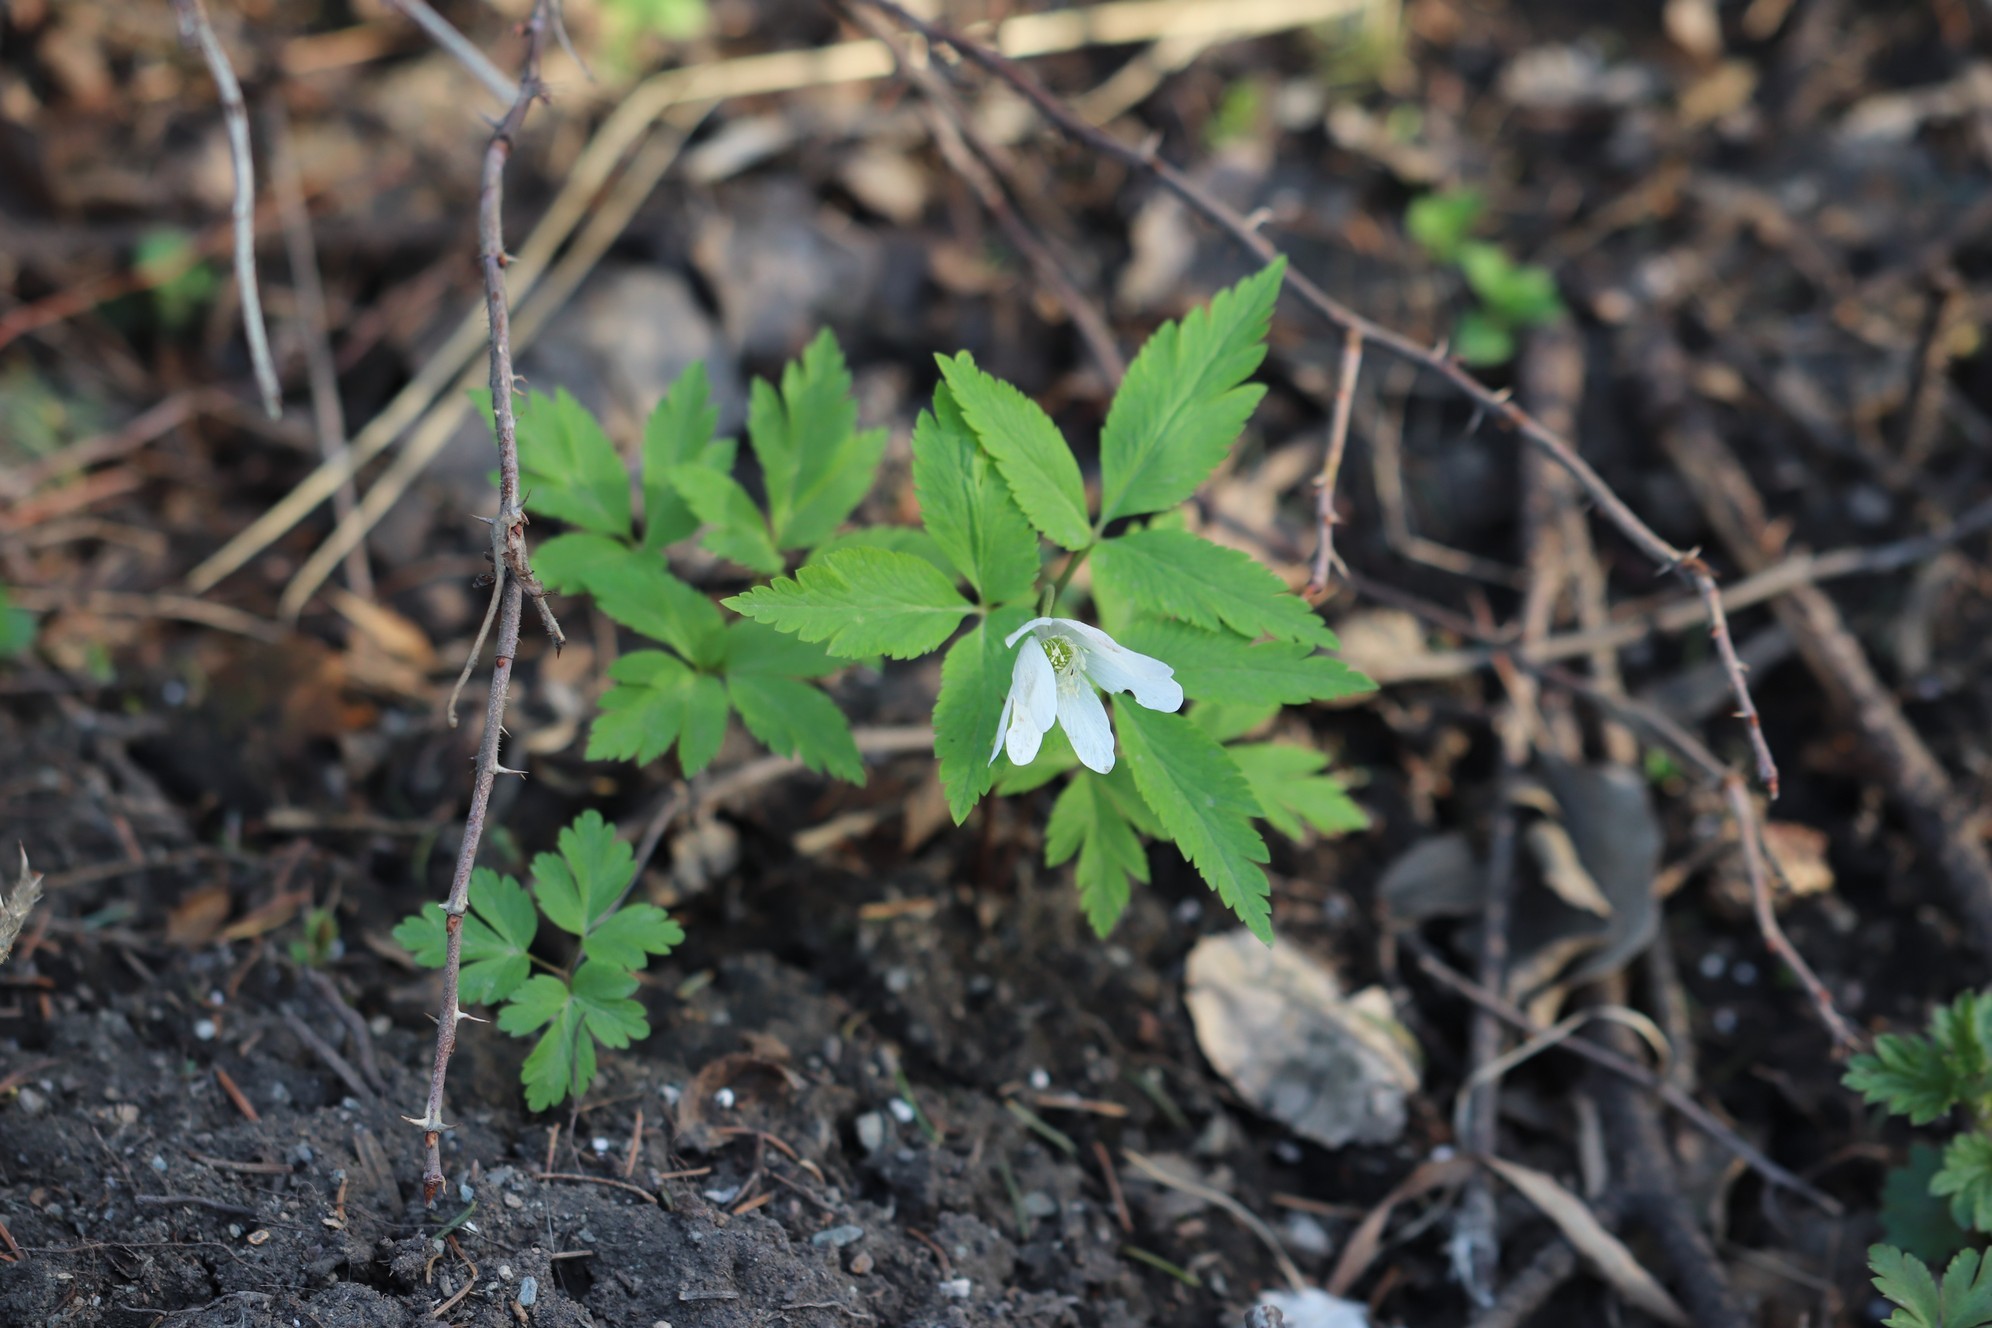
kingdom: Plantae
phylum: Tracheophyta
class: Magnoliopsida
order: Ranunculales
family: Ranunculaceae
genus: Anemone
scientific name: Anemone altaica
